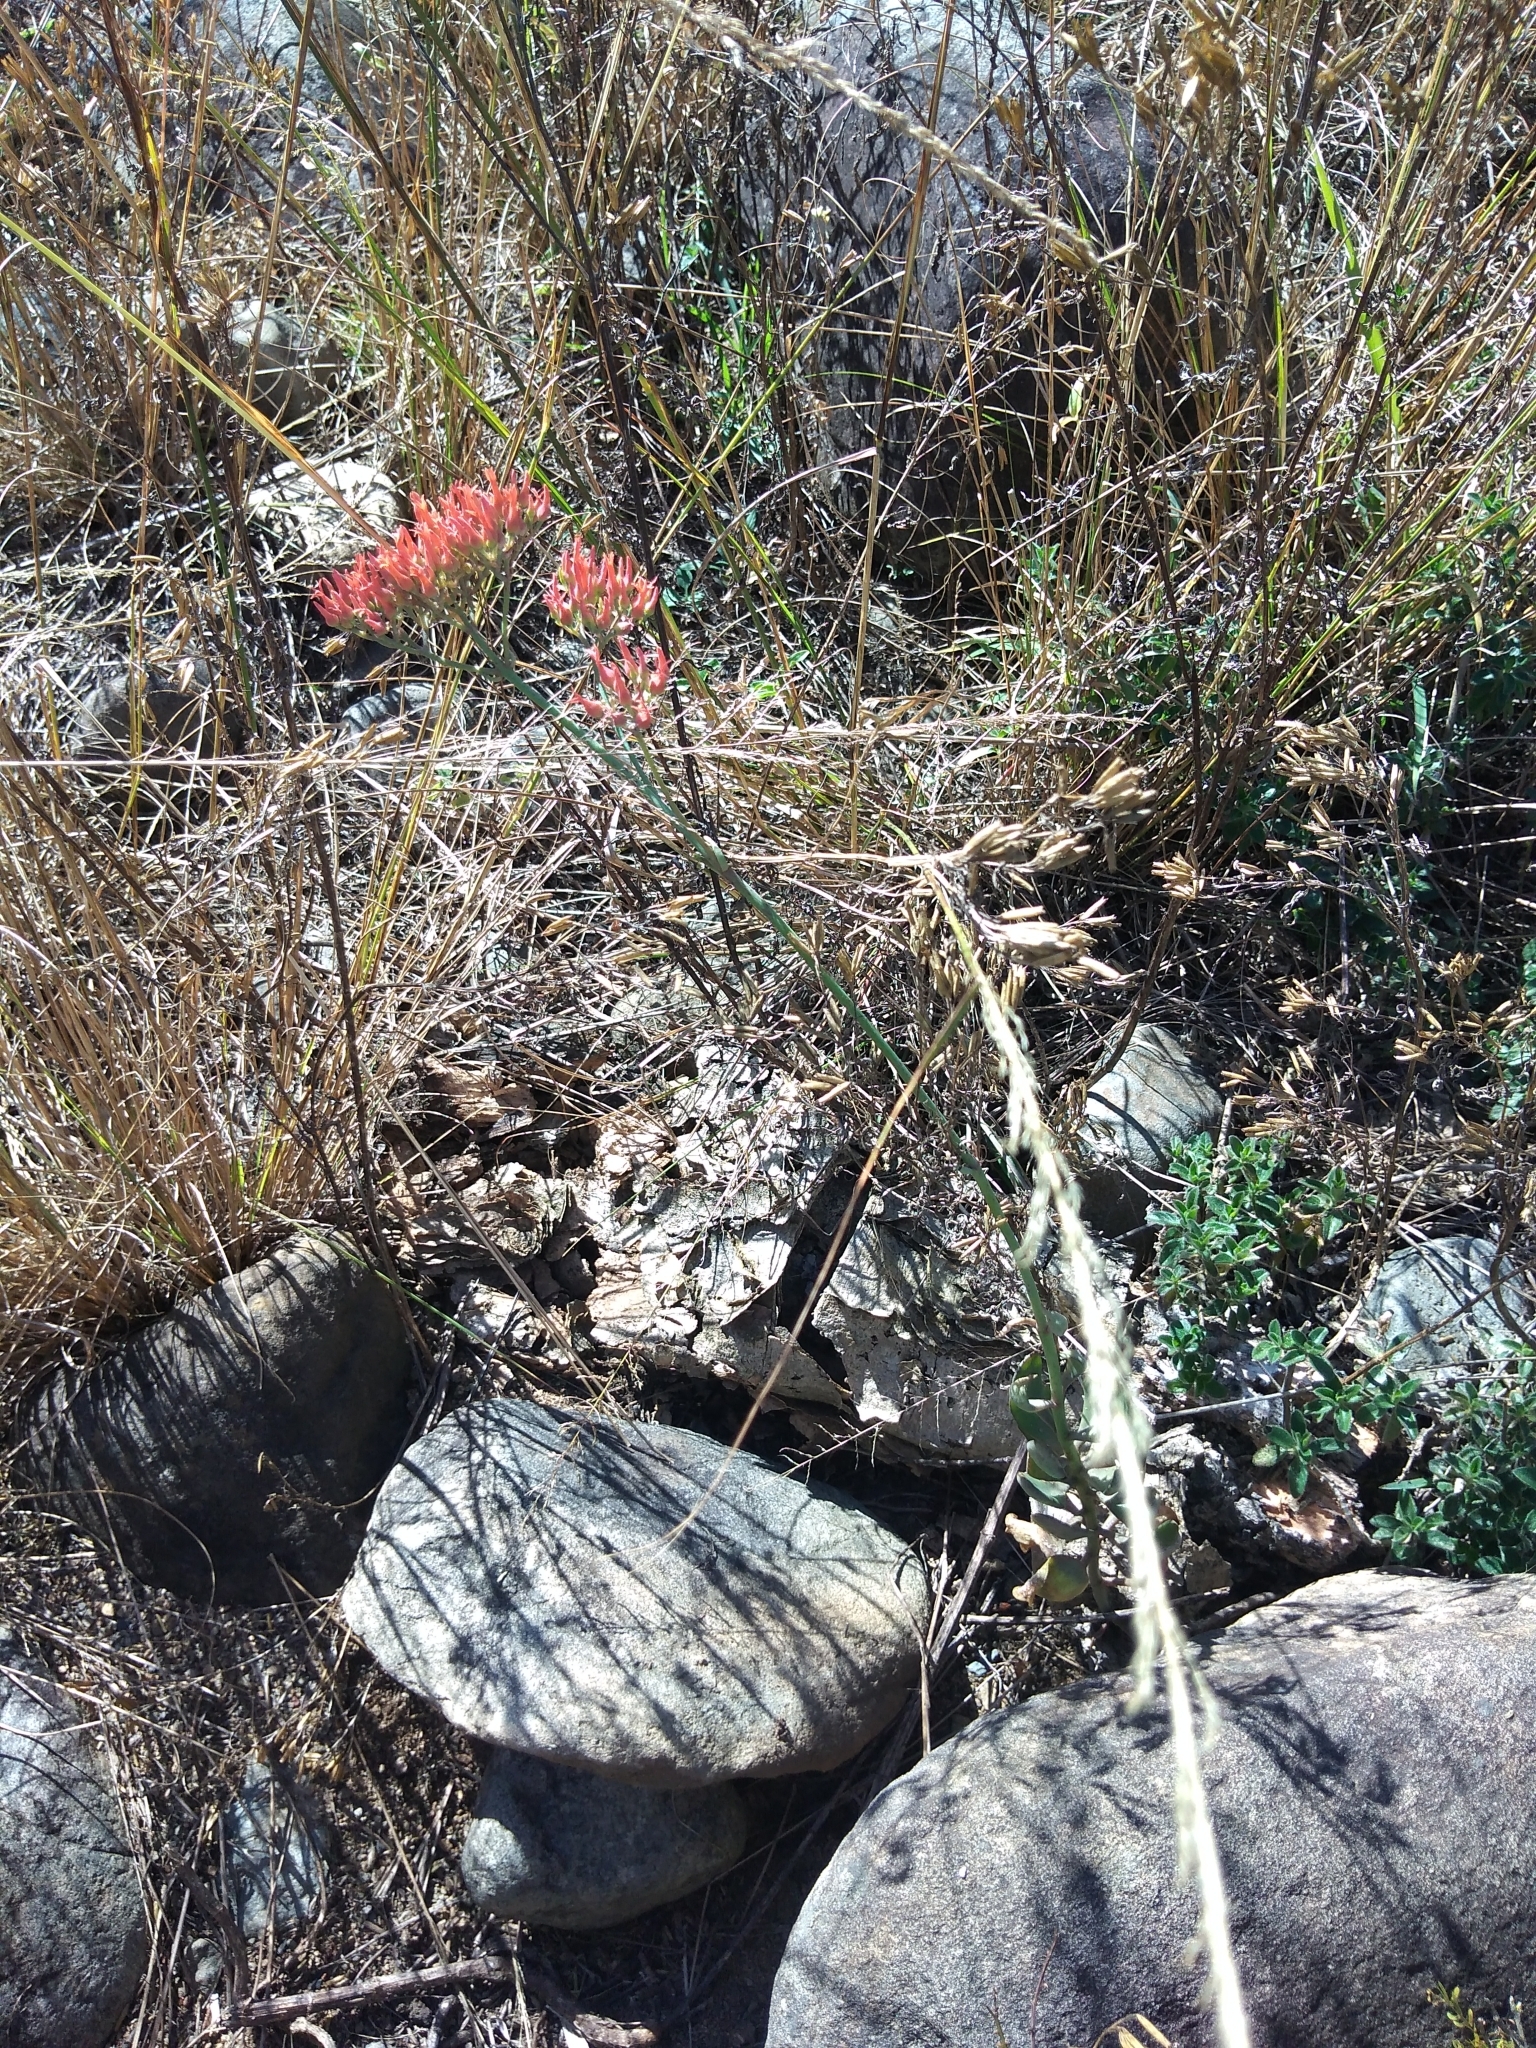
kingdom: Plantae
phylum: Tracheophyta
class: Magnoliopsida
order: Saxifragales
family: Crassulaceae
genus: Kalanchoe
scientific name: Kalanchoe rotundifolia
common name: Common kalanchoe
